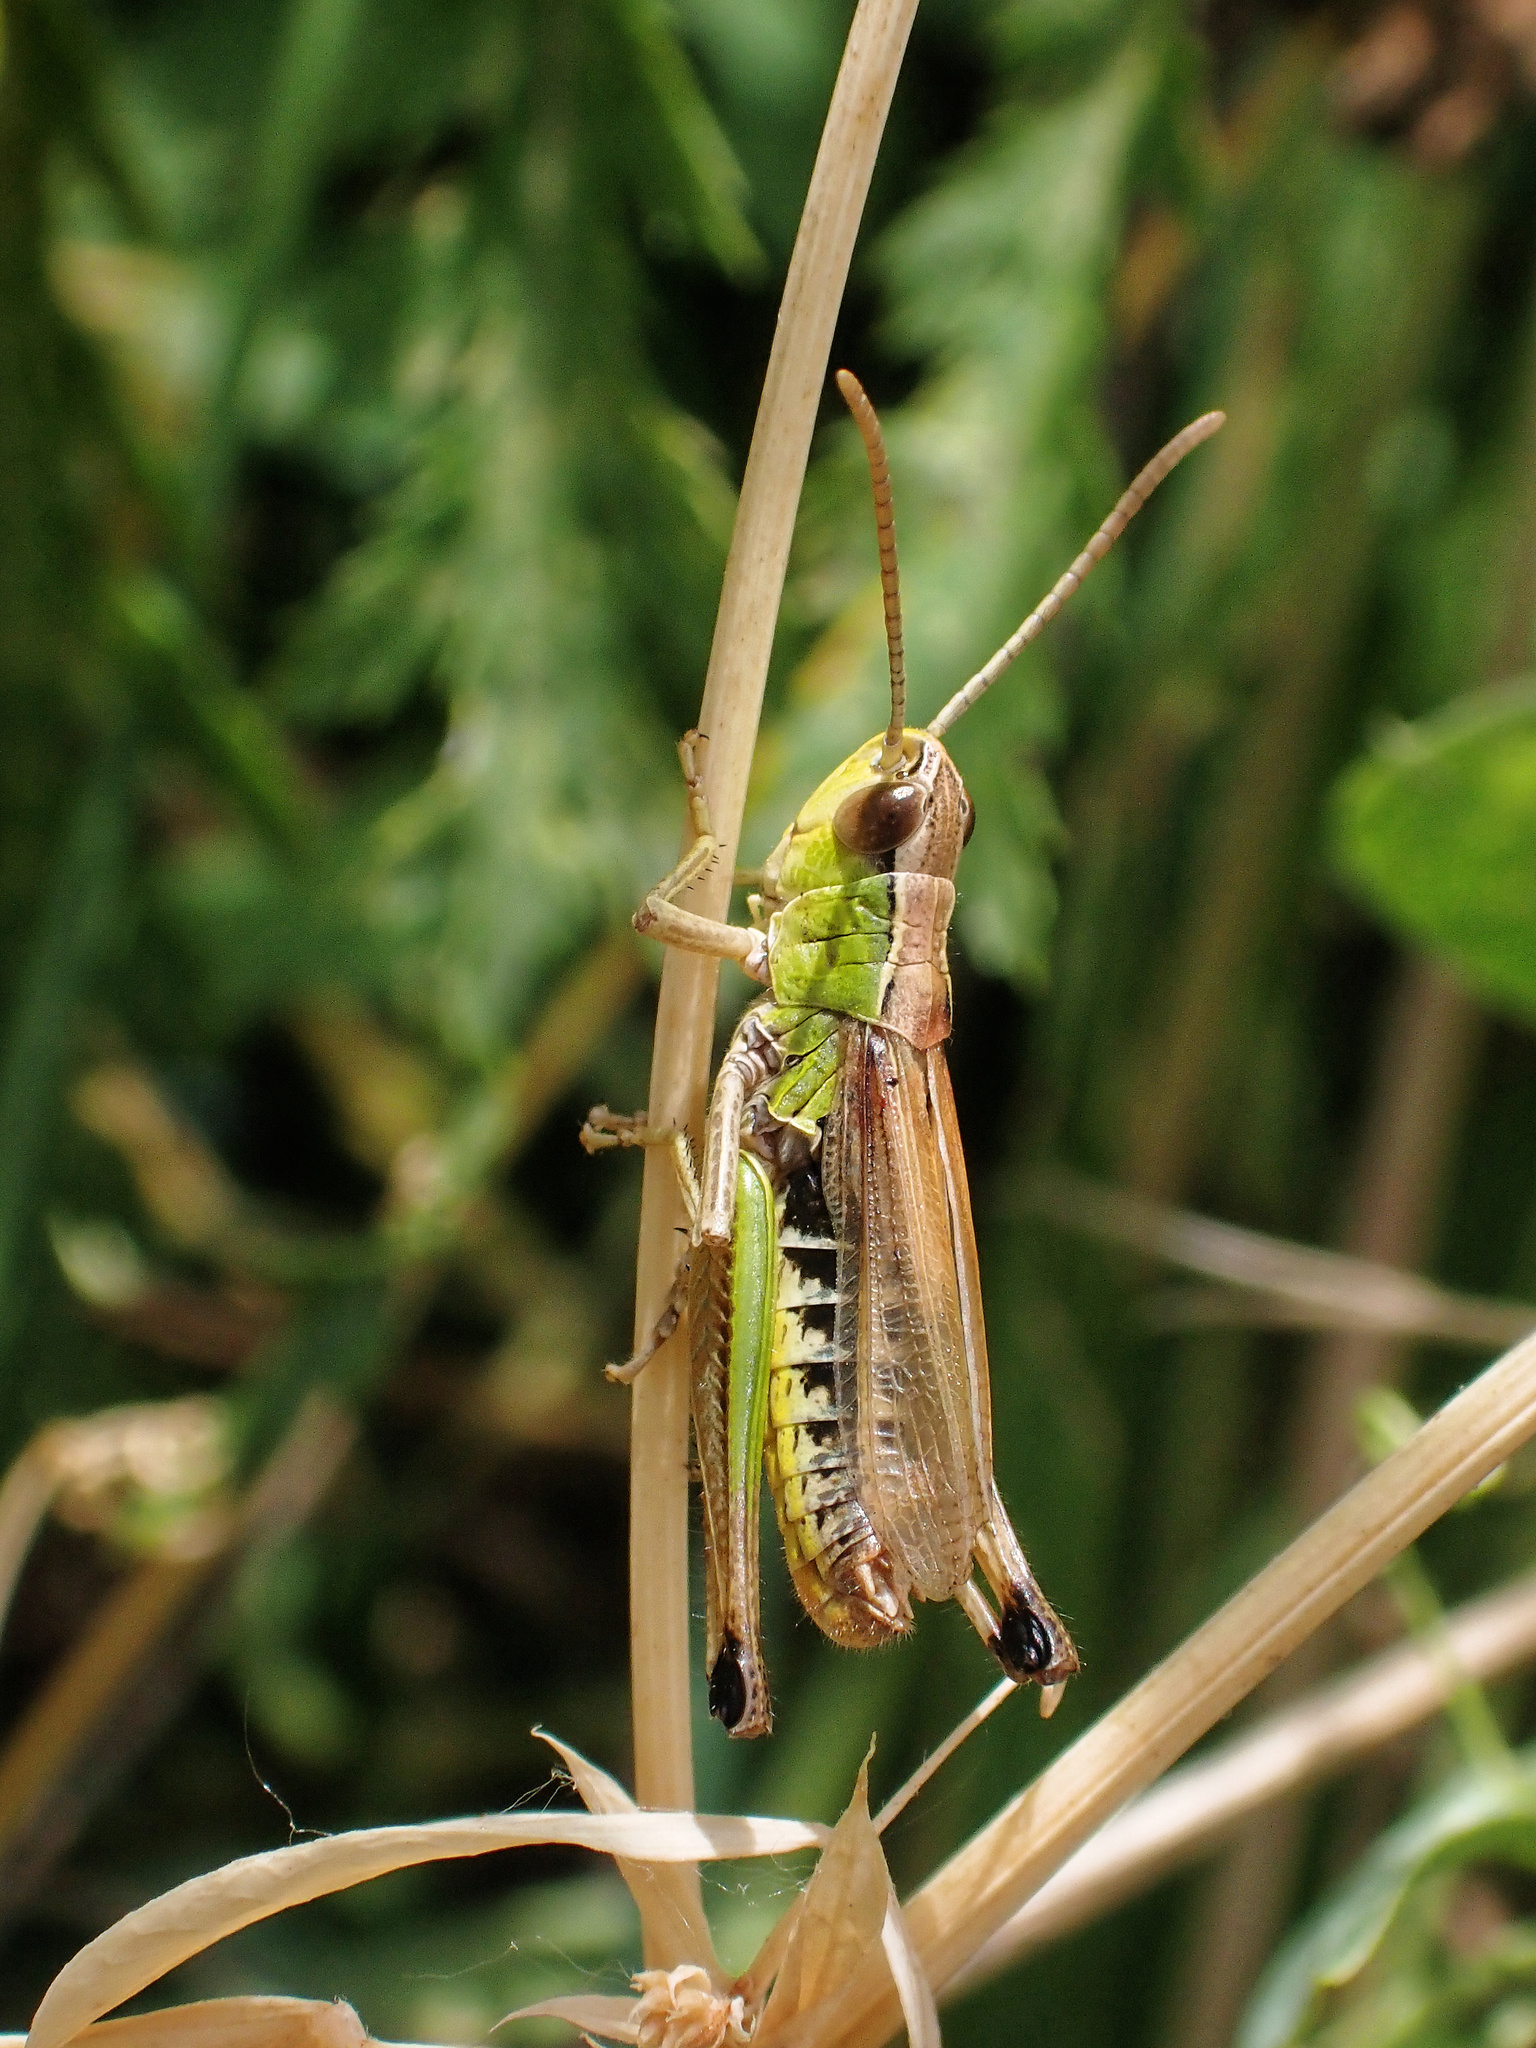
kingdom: Animalia
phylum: Arthropoda
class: Insecta
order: Orthoptera
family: Acrididae
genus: Pseudochorthippus
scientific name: Pseudochorthippus parallelus
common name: Meadow grasshopper
